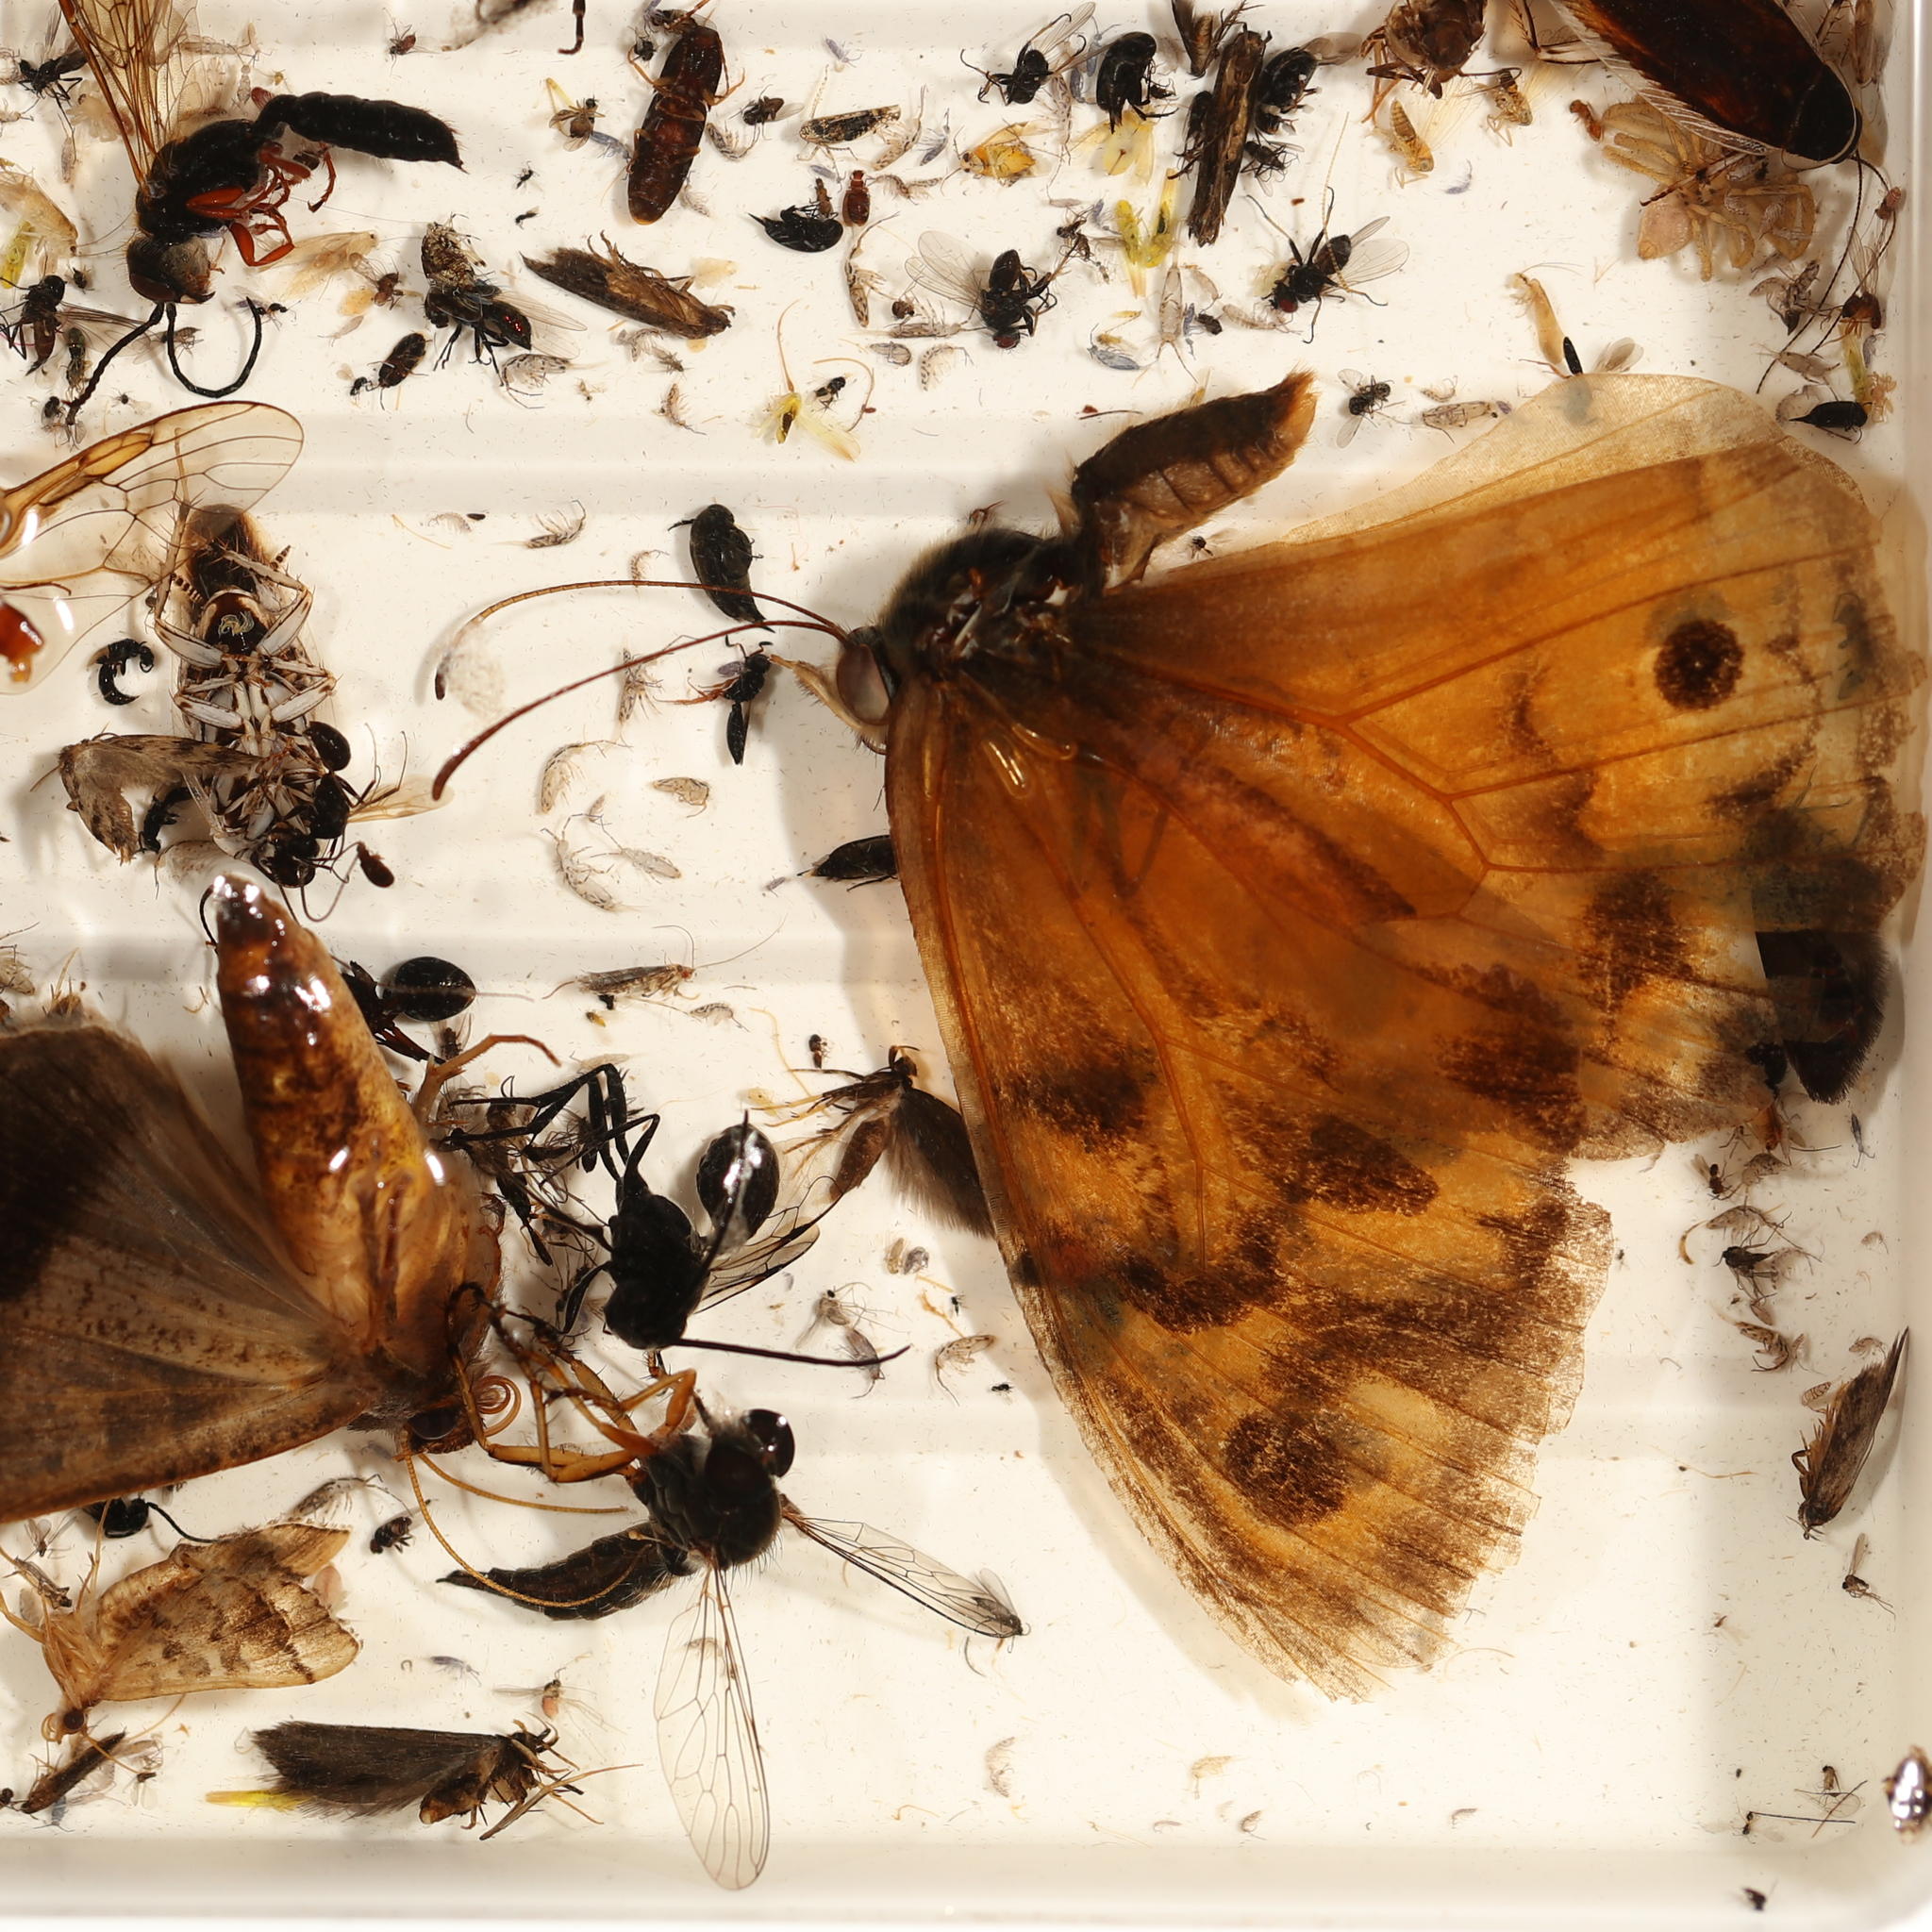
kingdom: Animalia
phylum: Arthropoda
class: Insecta
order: Lepidoptera
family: Nymphalidae
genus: Heteronympha
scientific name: Heteronympha merope
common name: Common brown
